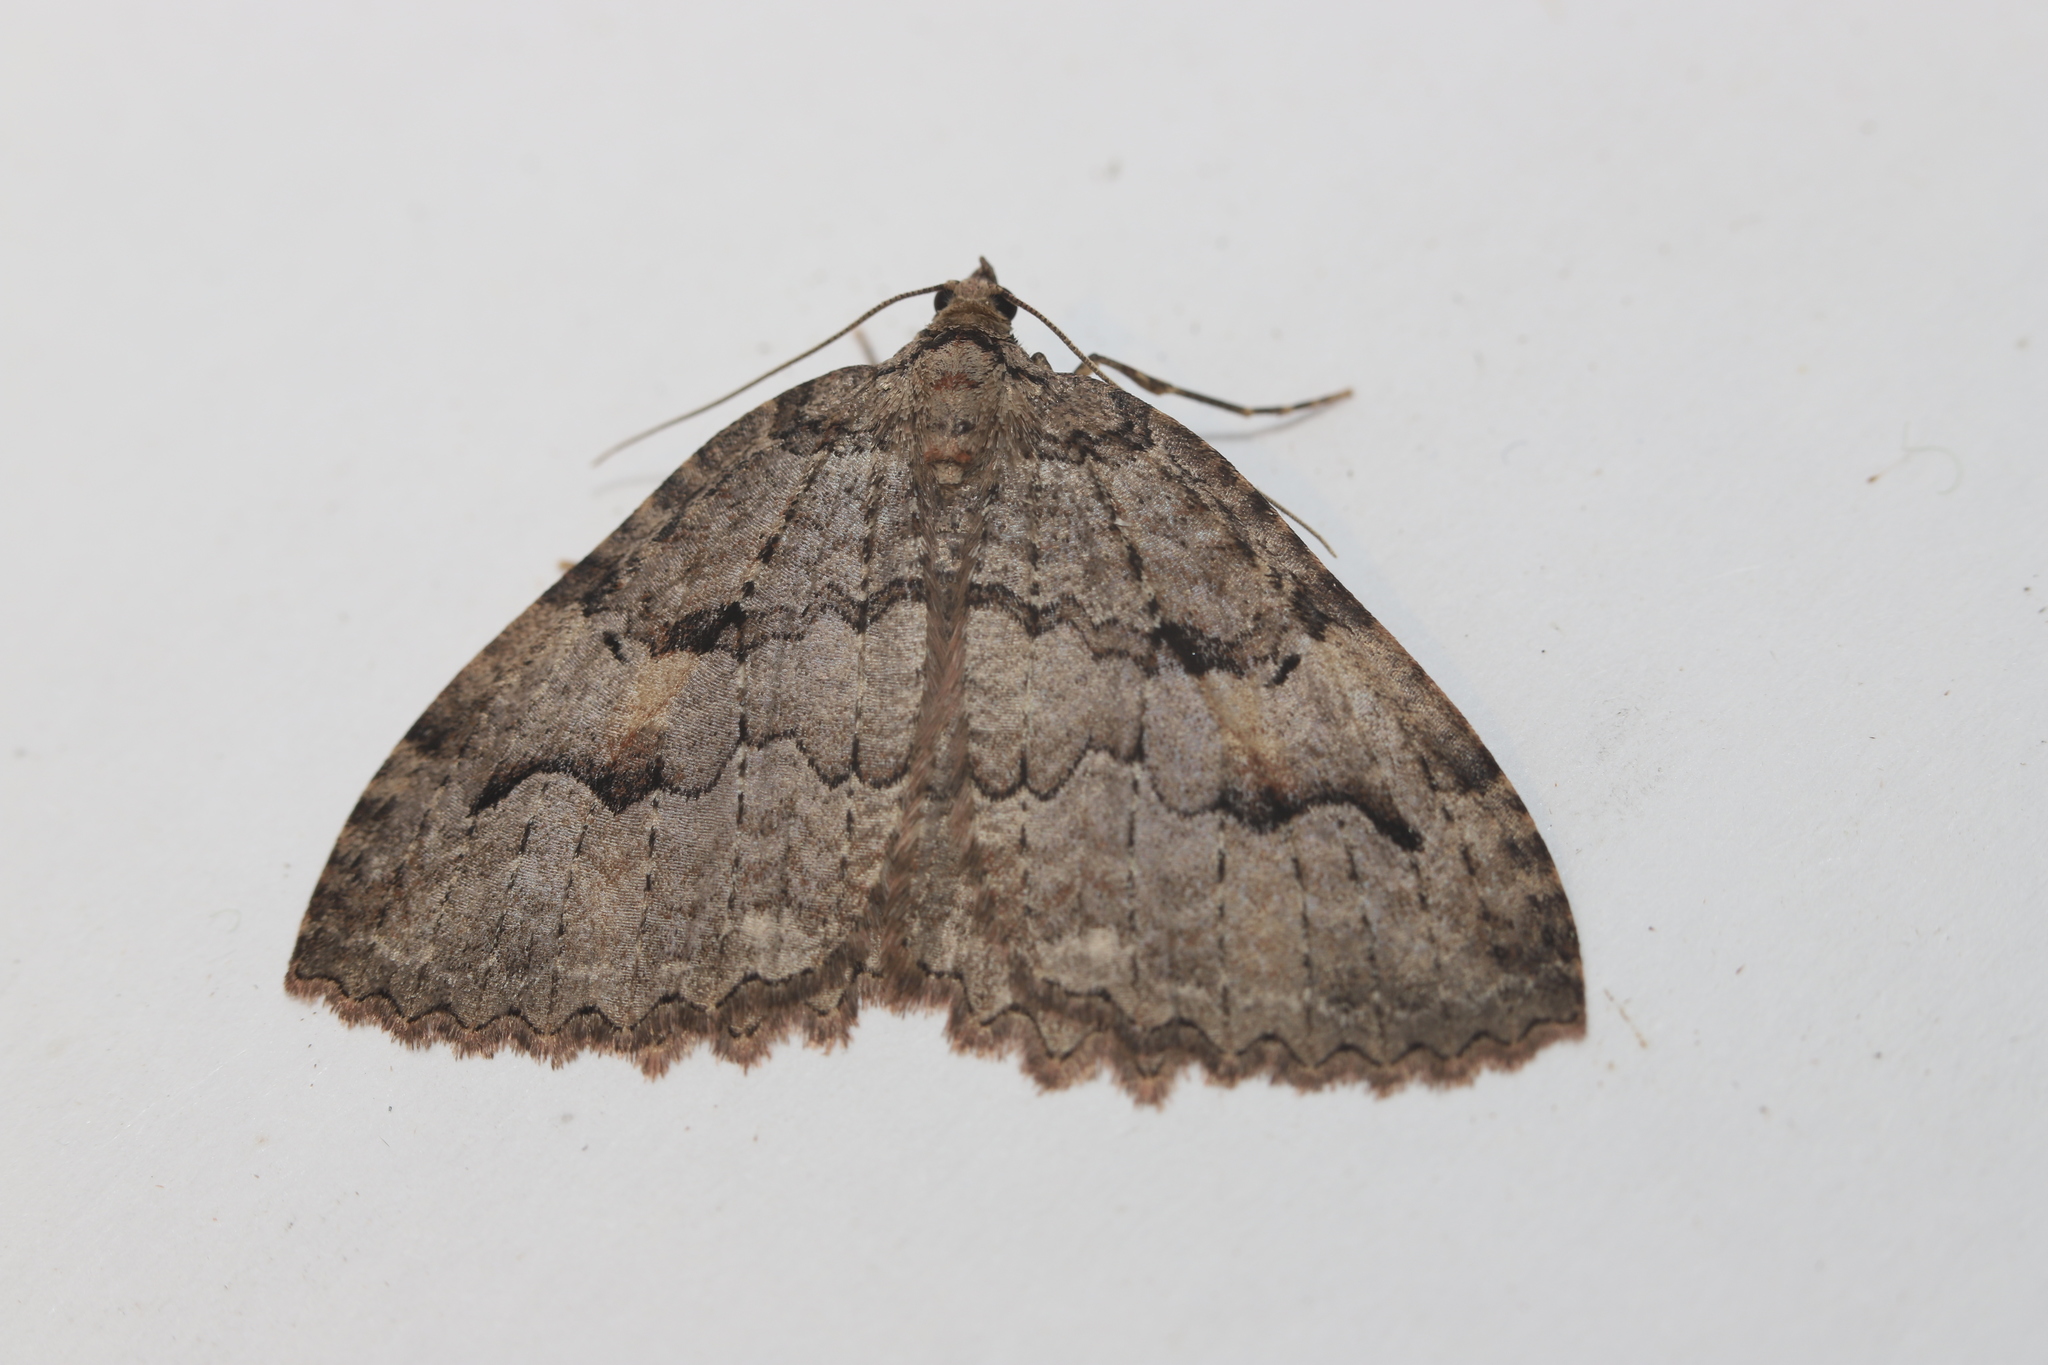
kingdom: Animalia
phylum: Arthropoda
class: Insecta
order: Lepidoptera
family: Geometridae
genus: Triphosa
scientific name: Triphosa haesitata
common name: Tissue moth
